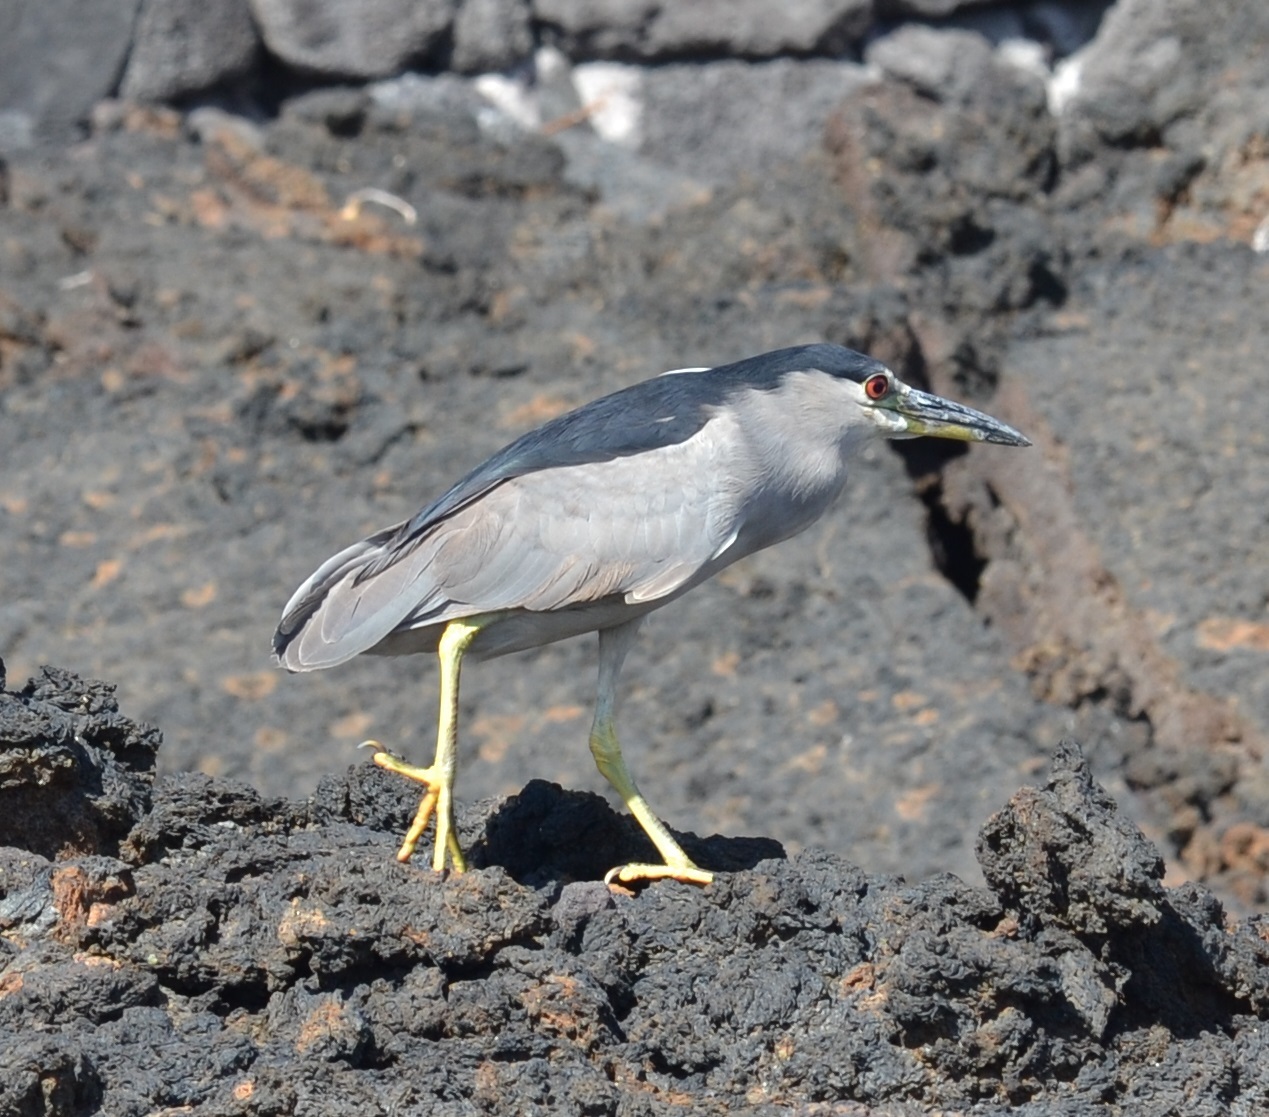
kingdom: Animalia
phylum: Chordata
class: Aves
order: Pelecaniformes
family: Ardeidae
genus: Nycticorax
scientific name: Nycticorax nycticorax
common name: Black-crowned night heron
